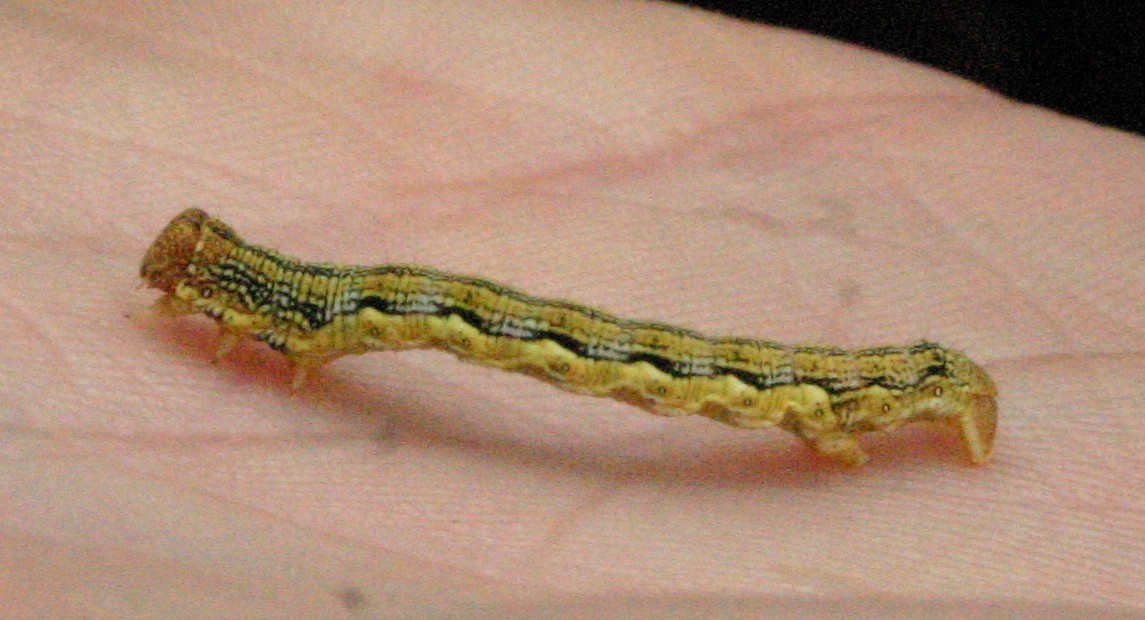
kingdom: Animalia
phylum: Arthropoda
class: Insecta
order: Lepidoptera
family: Geometridae
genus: Erannis
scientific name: Erannis defoliaria
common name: Mottled umber
